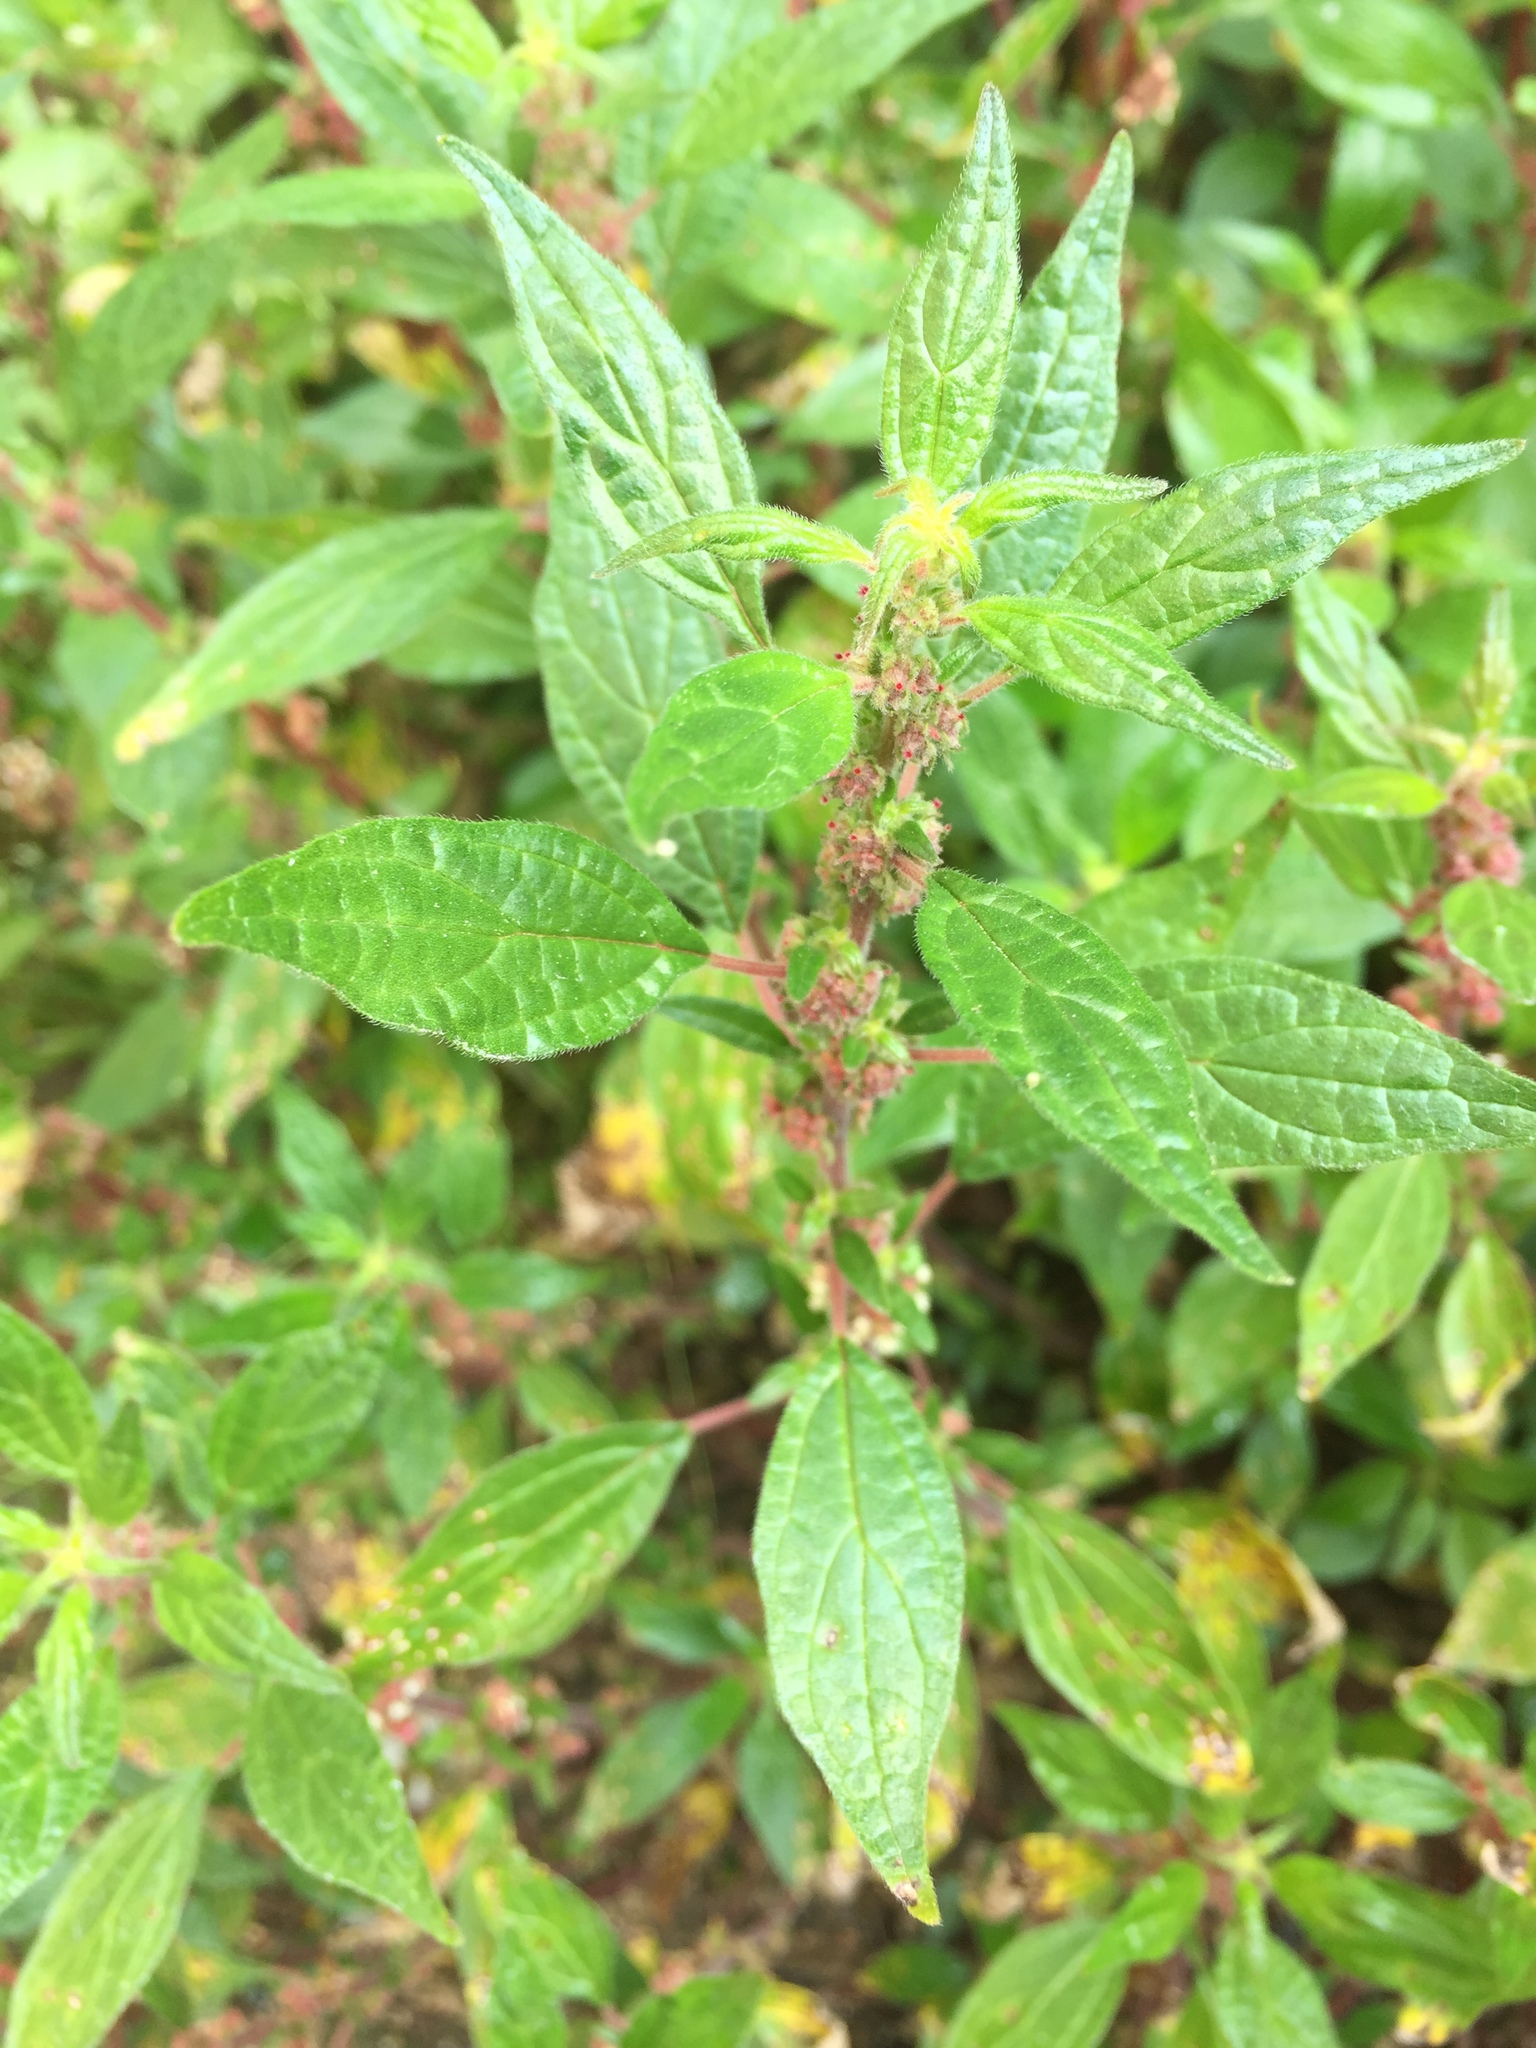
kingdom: Plantae
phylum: Tracheophyta
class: Magnoliopsida
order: Rosales
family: Urticaceae
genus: Parietaria
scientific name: Parietaria judaica
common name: Pellitory-of-the-wall
